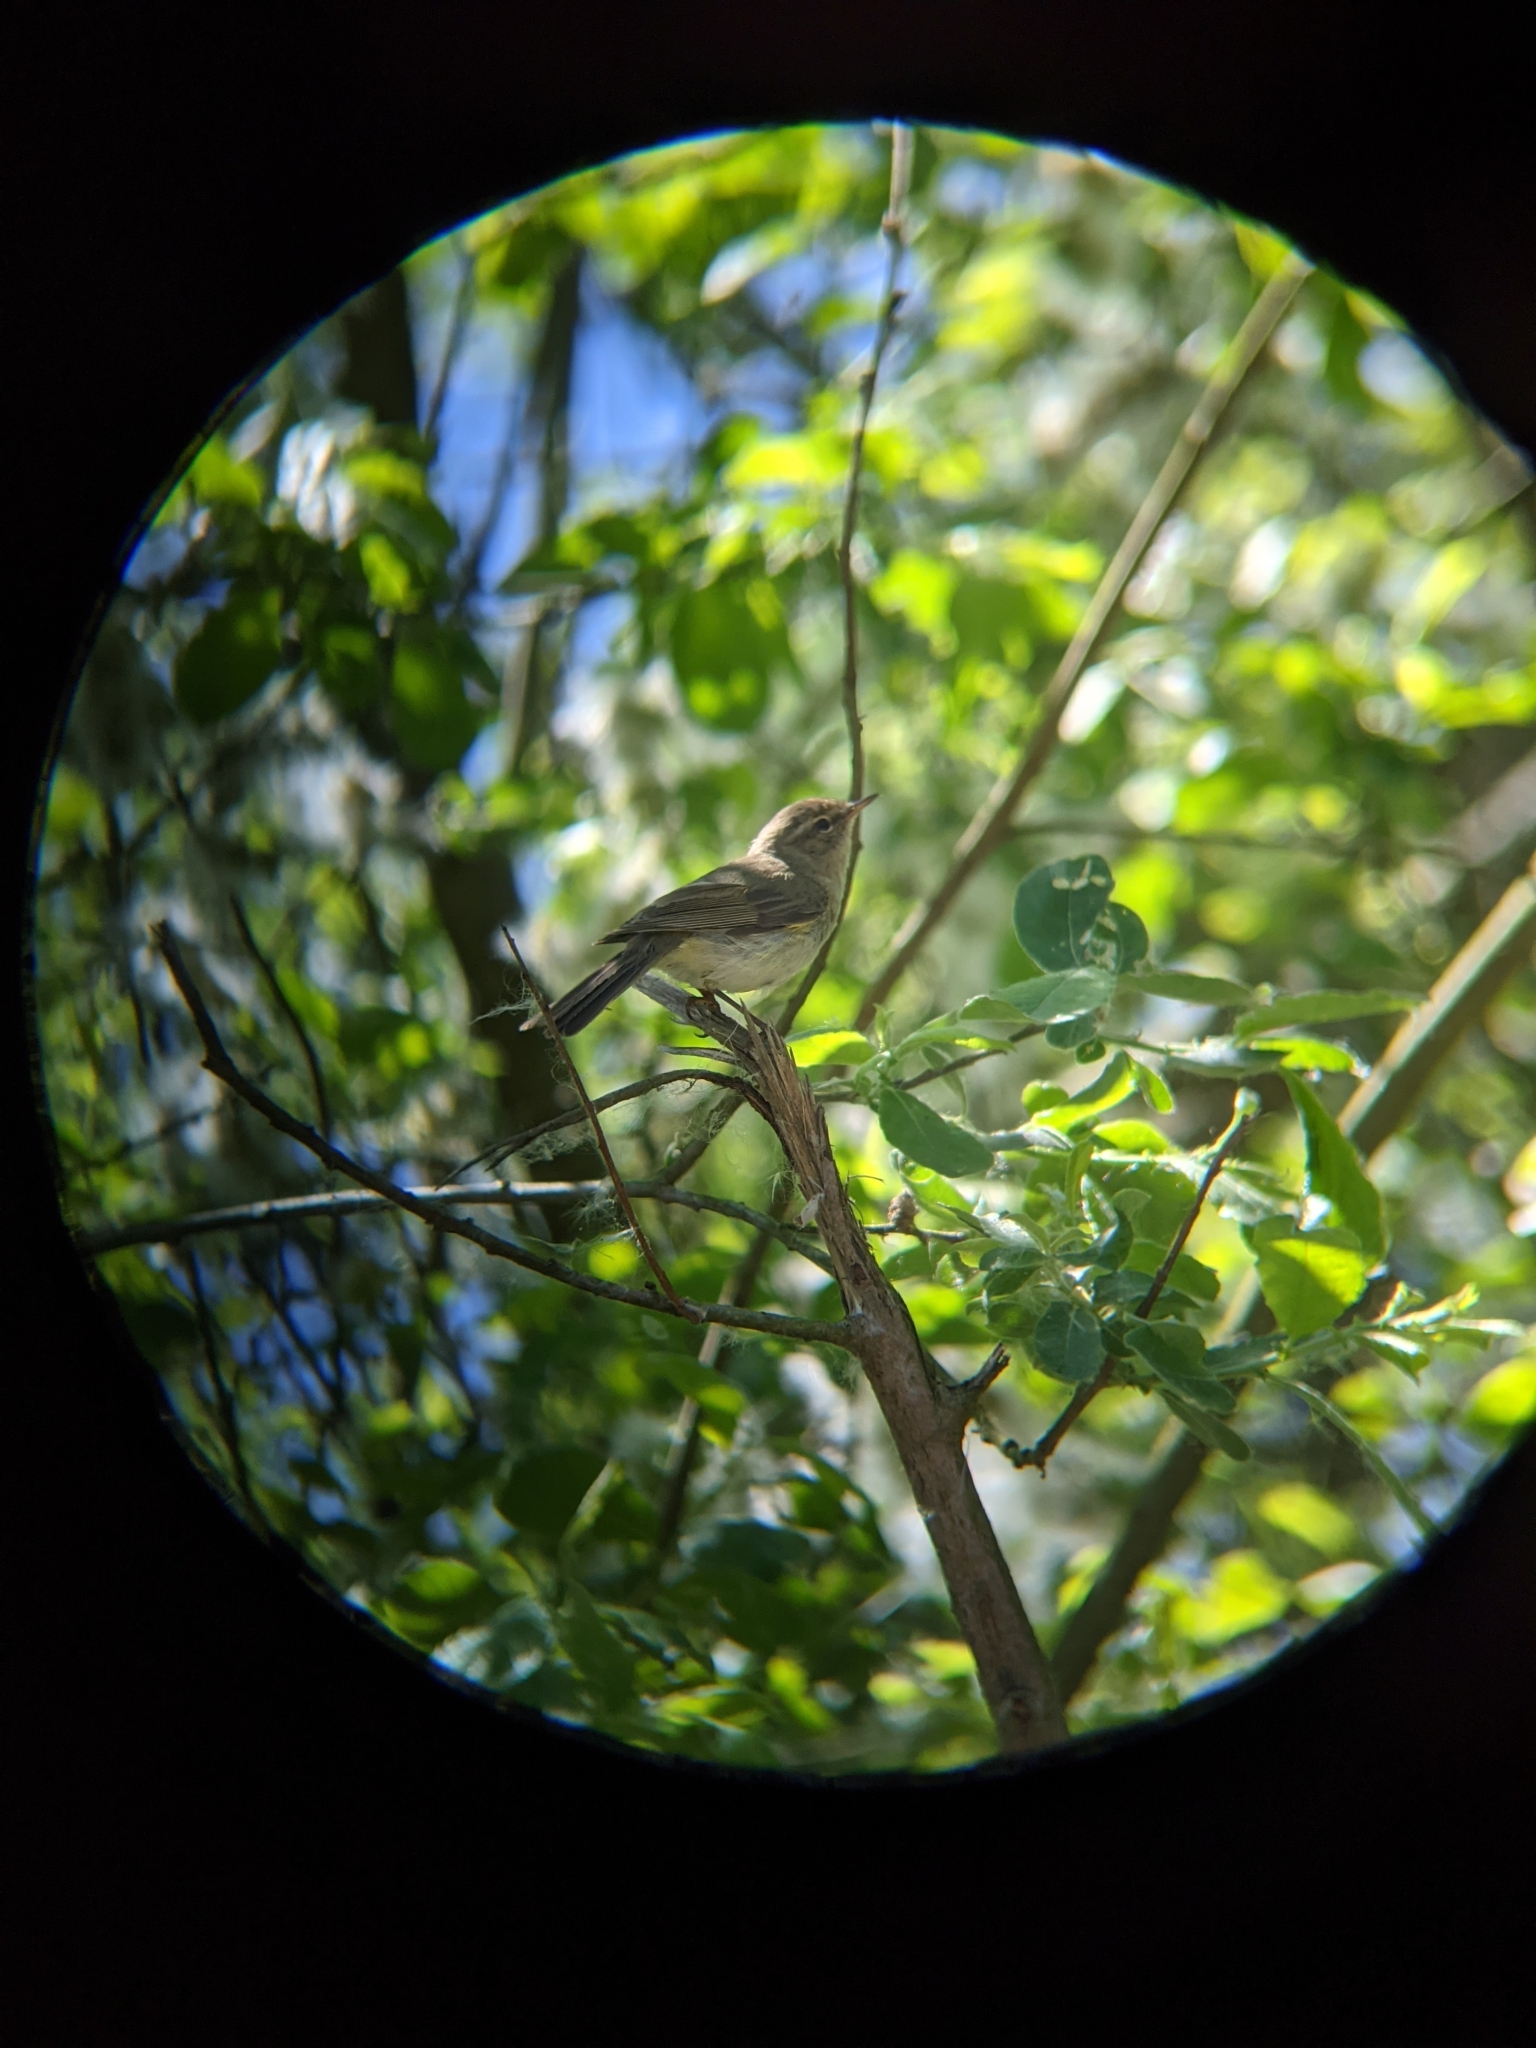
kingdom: Animalia
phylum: Chordata
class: Aves
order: Passeriformes
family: Phylloscopidae
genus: Phylloscopus
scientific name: Phylloscopus collybita
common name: Common chiffchaff
